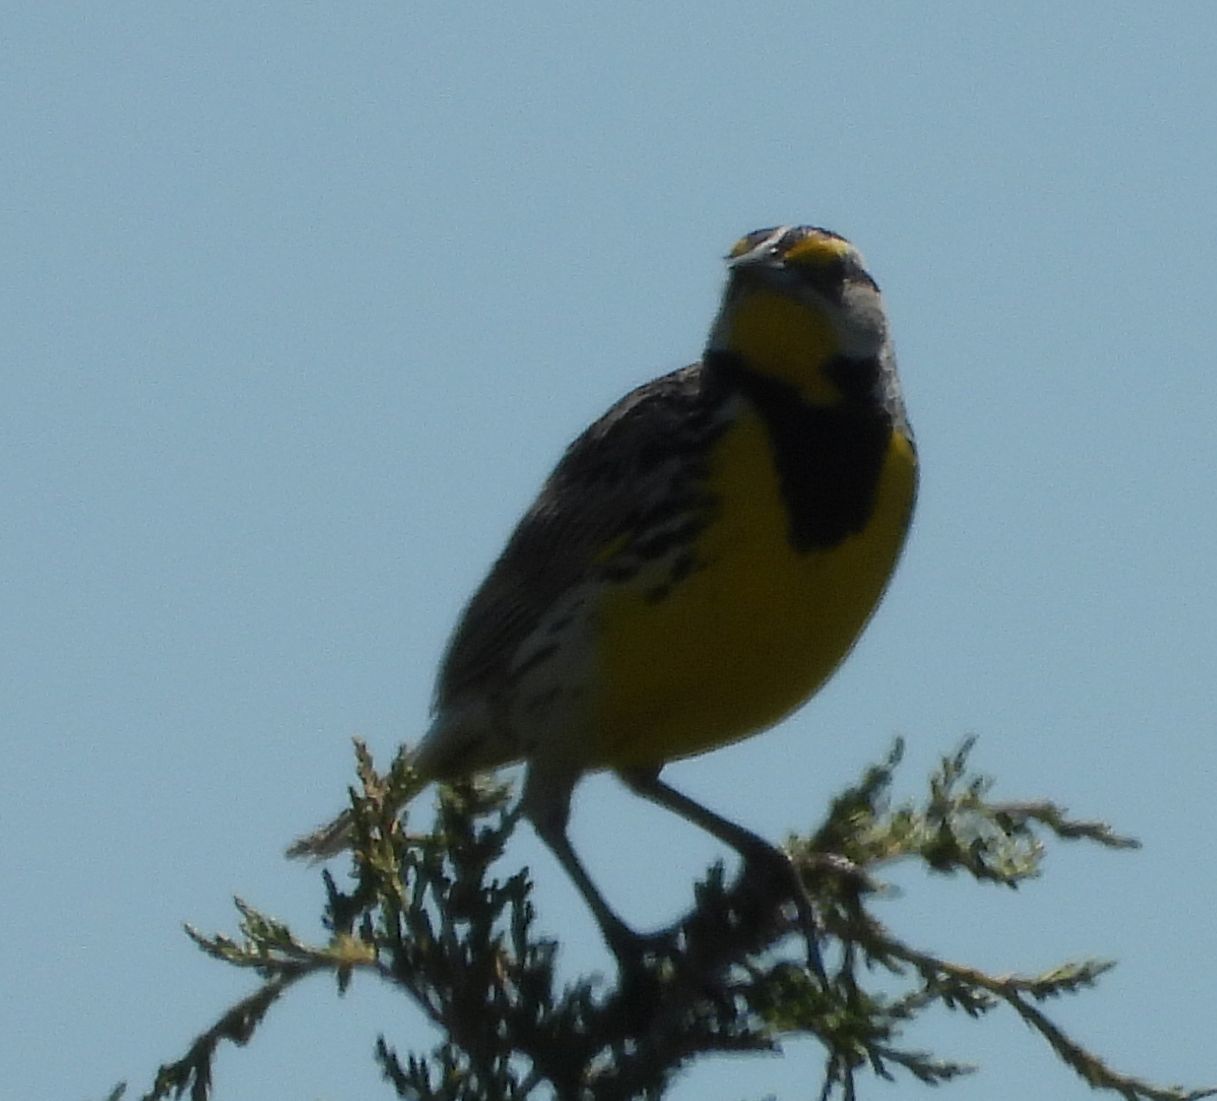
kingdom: Animalia
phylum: Chordata
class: Aves
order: Passeriformes
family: Icteridae
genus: Sturnella
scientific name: Sturnella magna
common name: Eastern meadowlark
